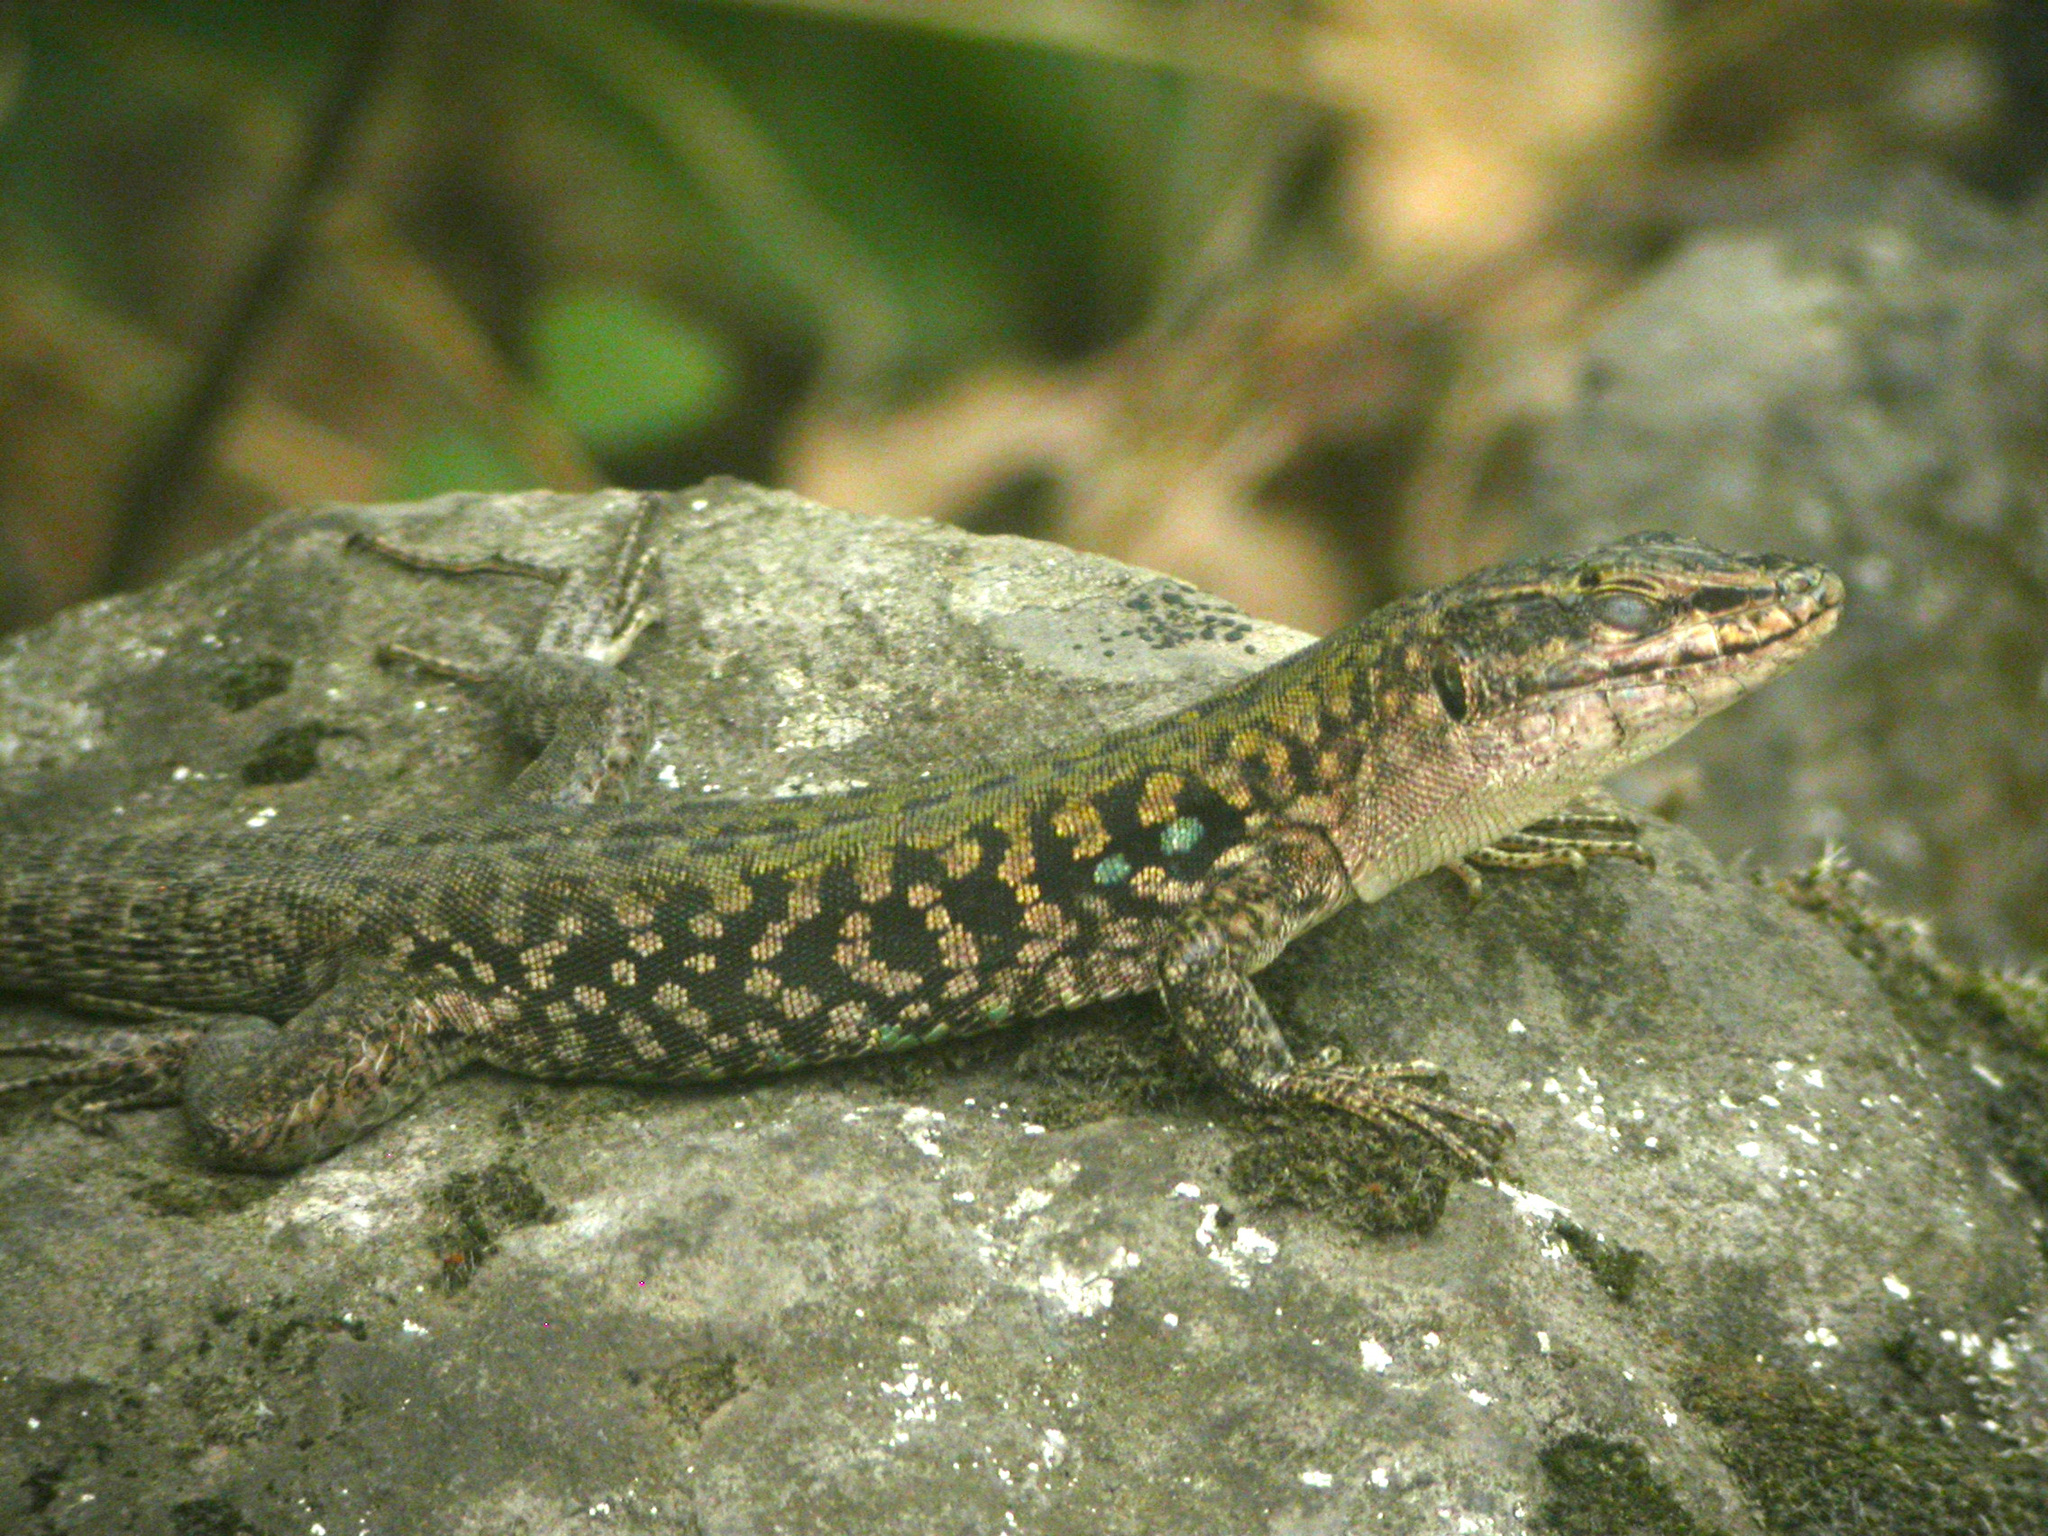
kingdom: Animalia
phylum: Chordata
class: Squamata
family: Lacertidae
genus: Podarcis
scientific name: Podarcis siculus
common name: Italian wall lizard
